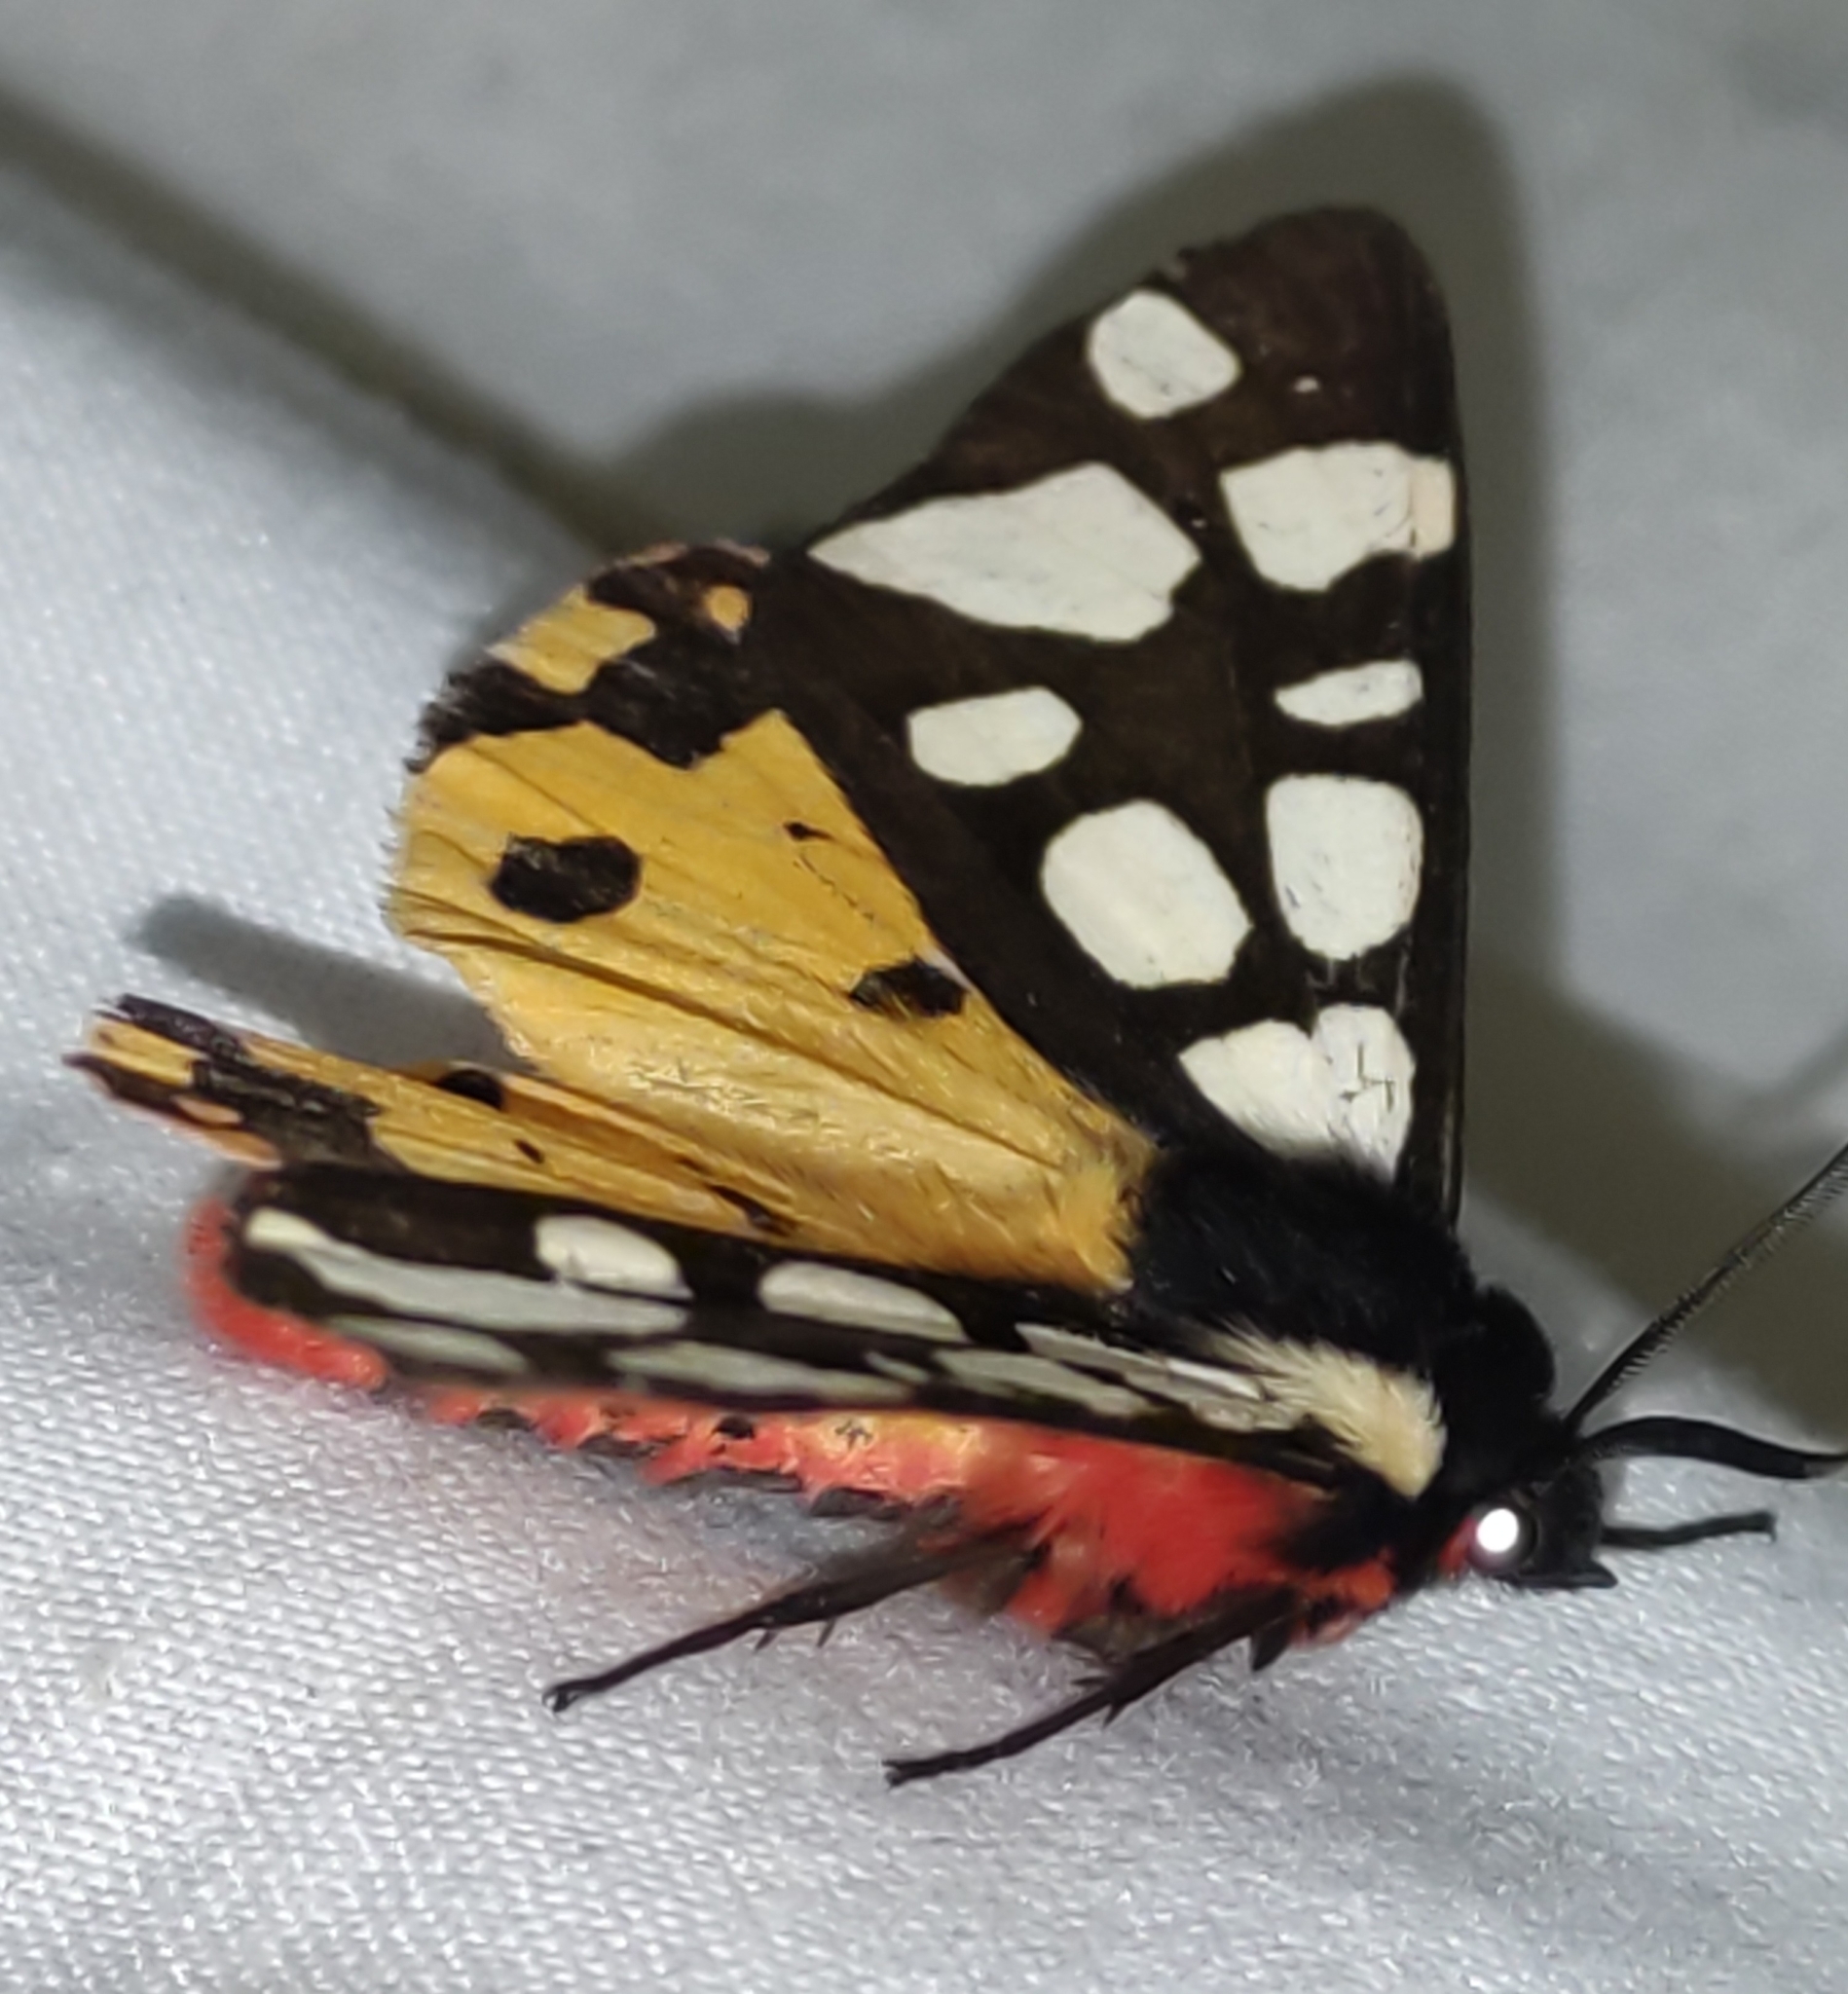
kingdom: Animalia
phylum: Arthropoda
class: Insecta
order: Lepidoptera
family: Erebidae
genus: Epicallia
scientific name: Epicallia villica
